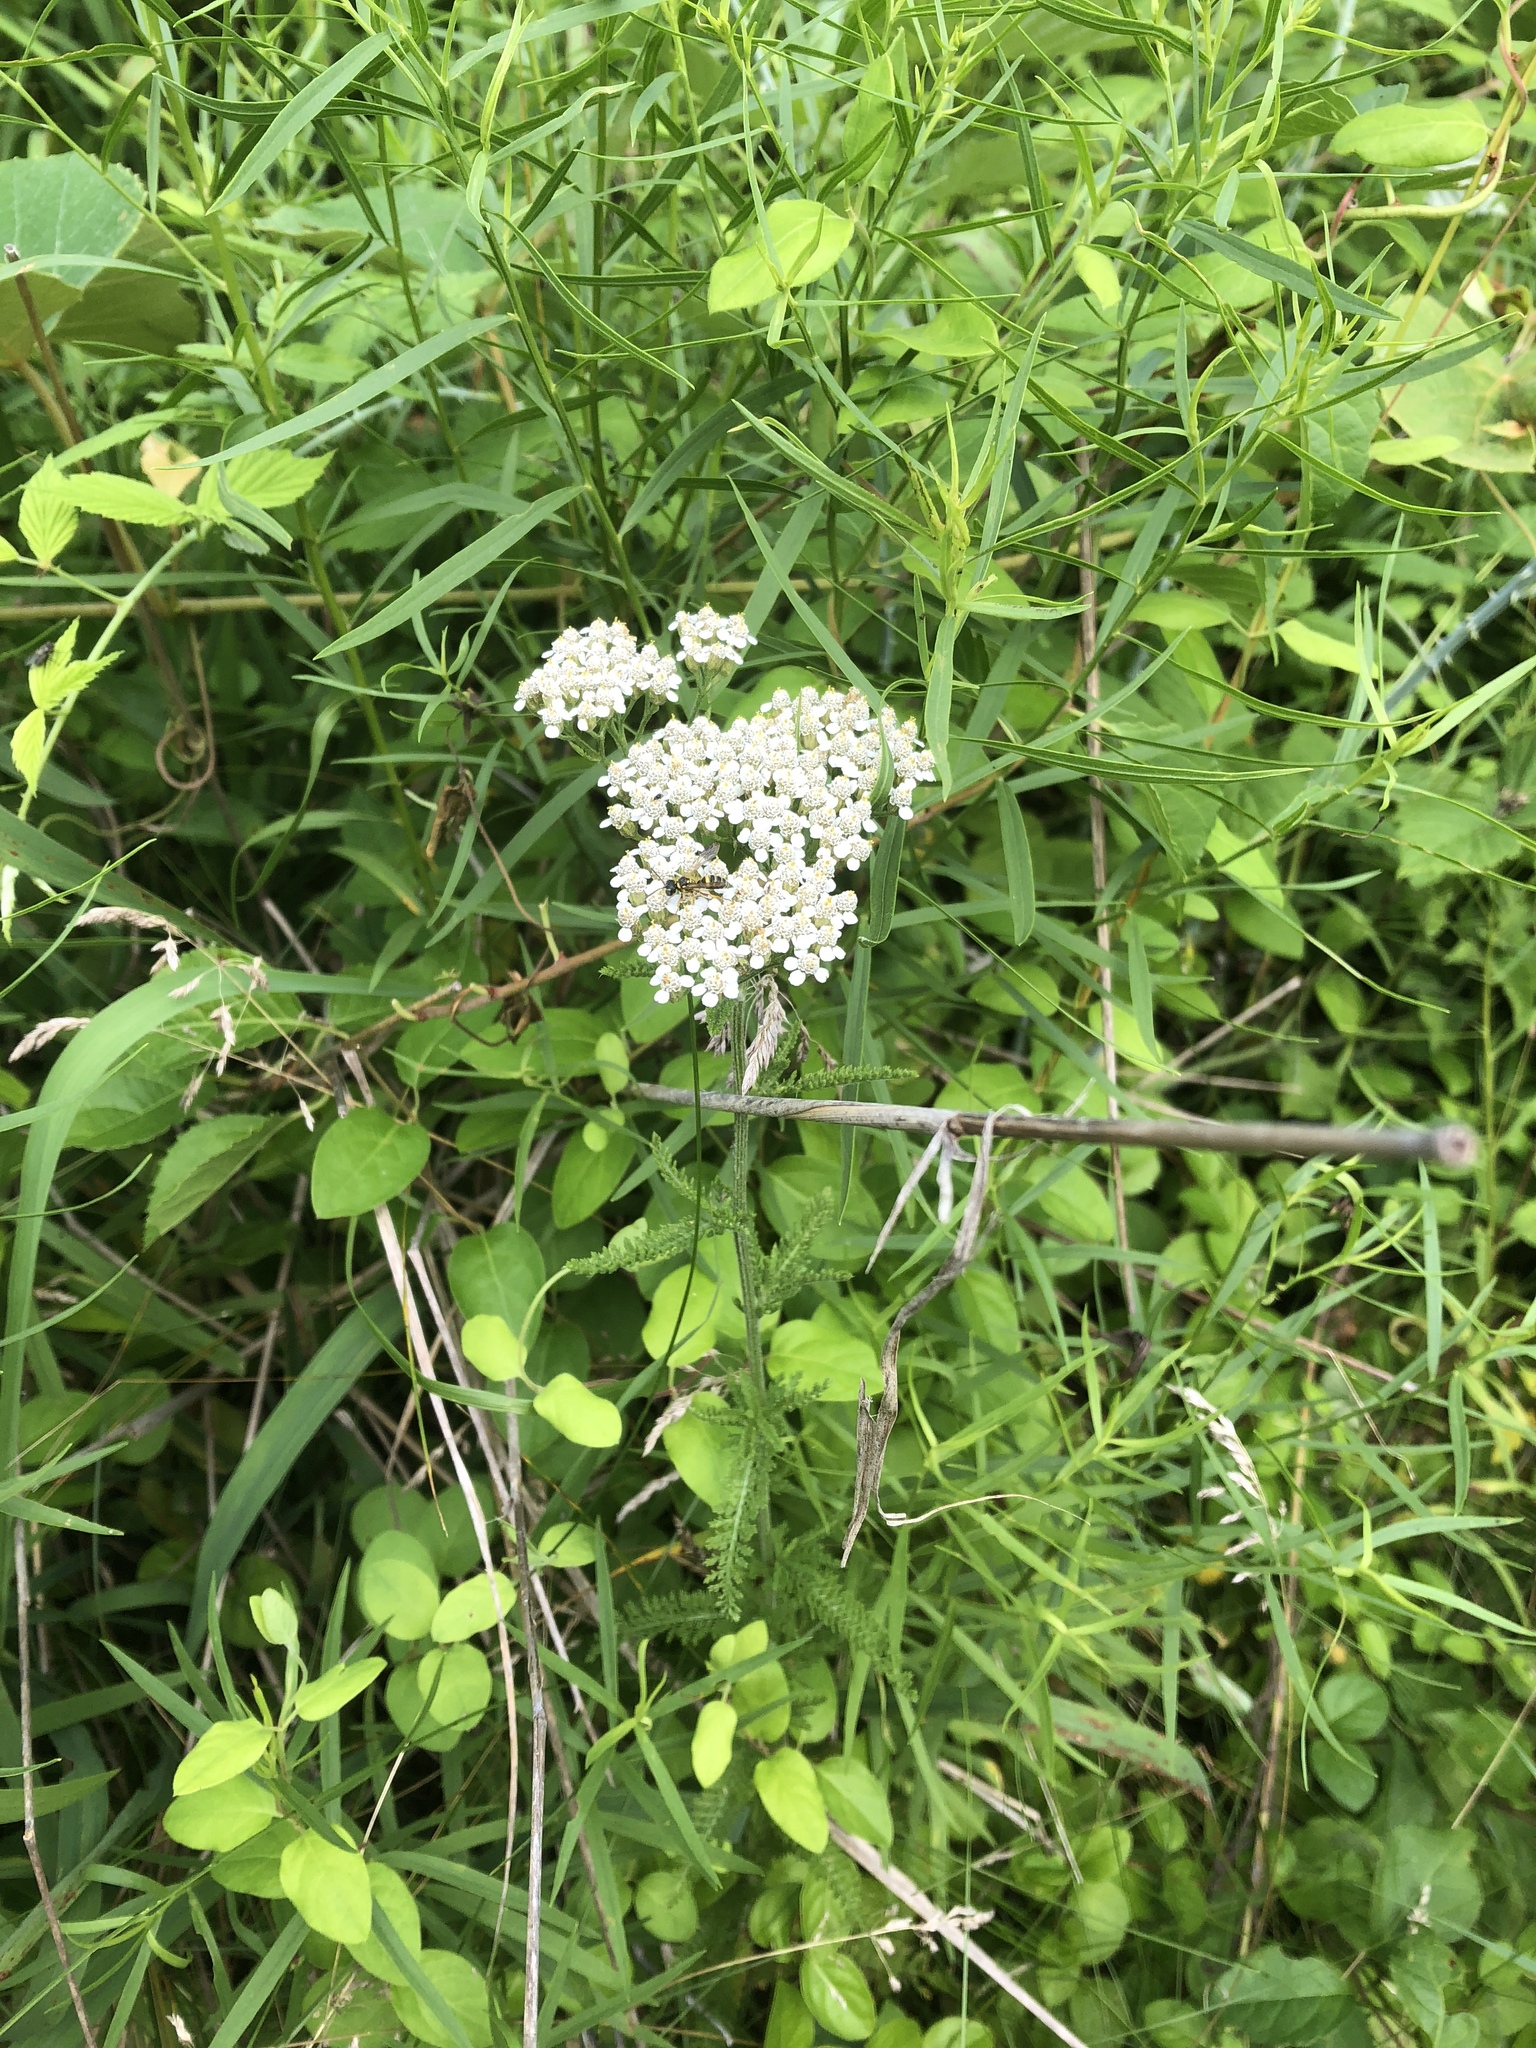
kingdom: Plantae
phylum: Tracheophyta
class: Magnoliopsida
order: Asterales
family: Asteraceae
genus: Achillea
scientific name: Achillea millefolium
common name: Yarrow
